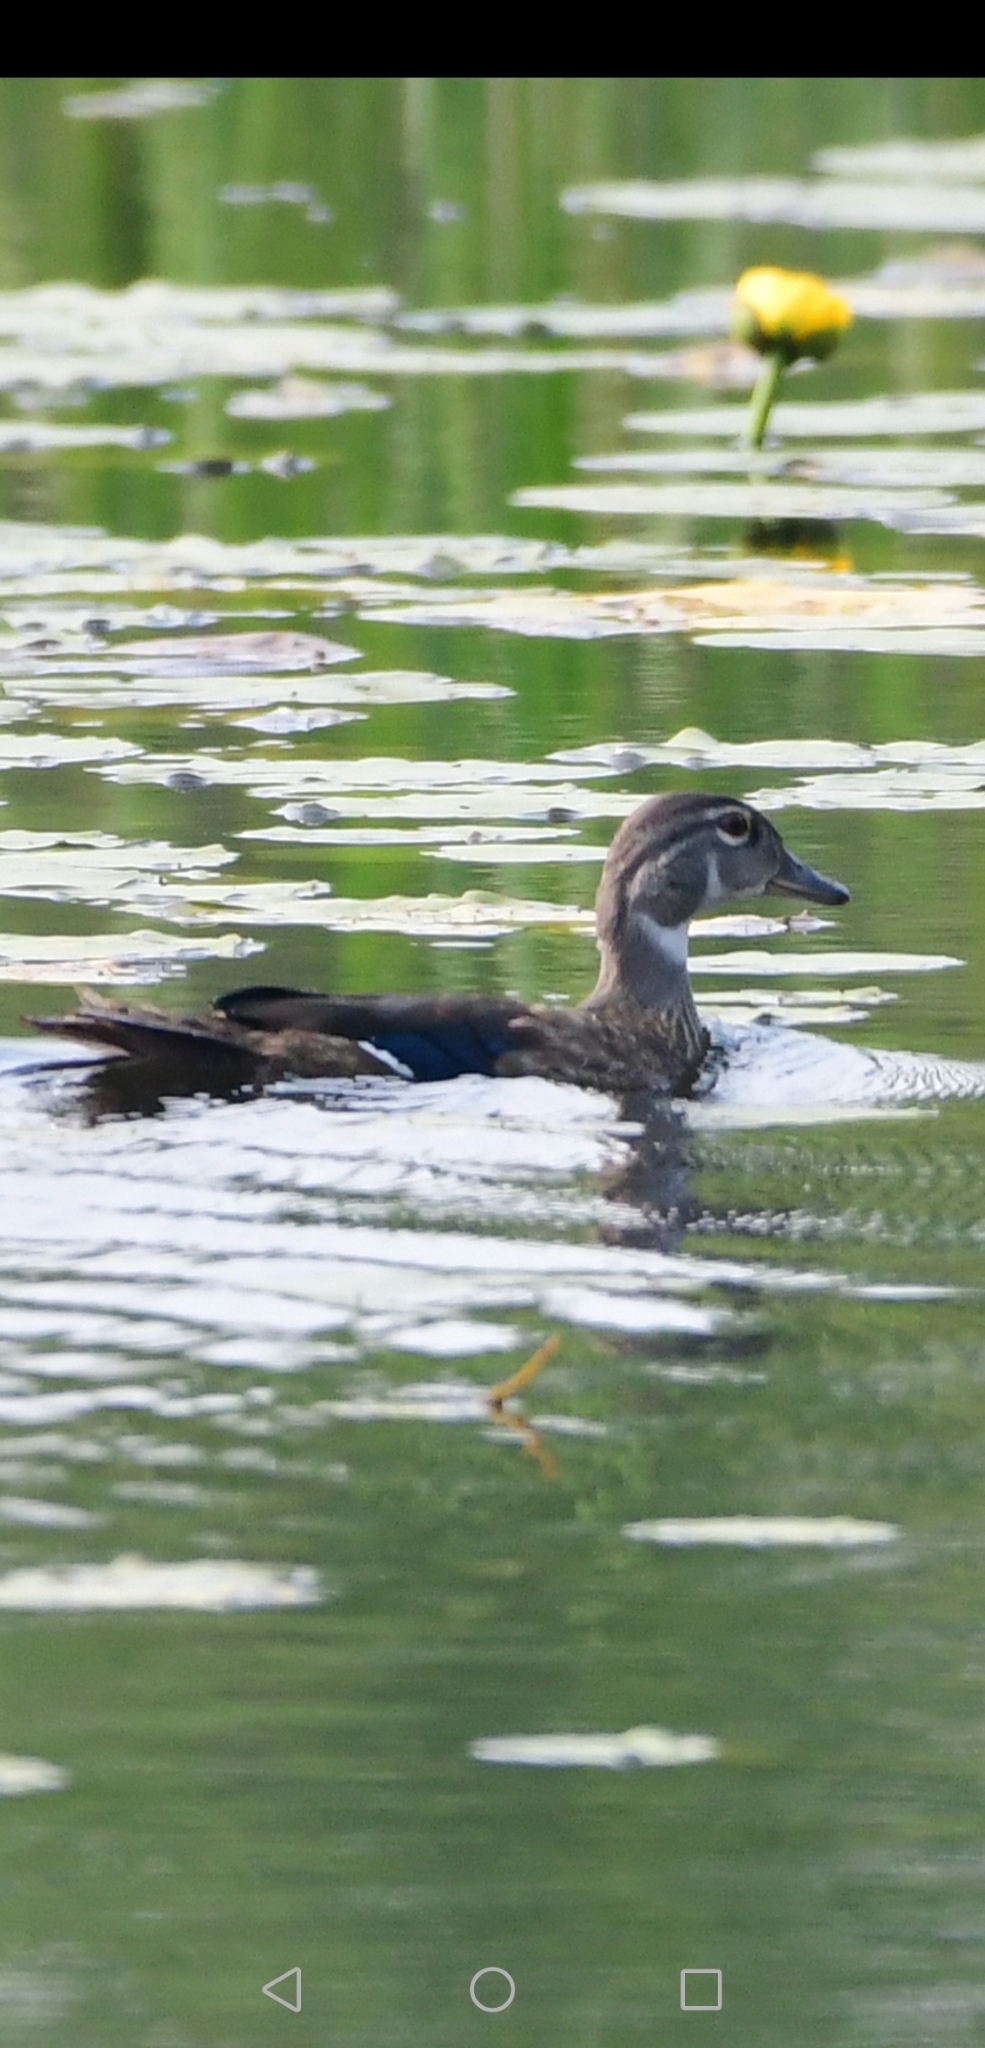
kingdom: Animalia
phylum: Chordata
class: Aves
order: Anseriformes
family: Anatidae
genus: Aix
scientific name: Aix sponsa
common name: Wood duck
